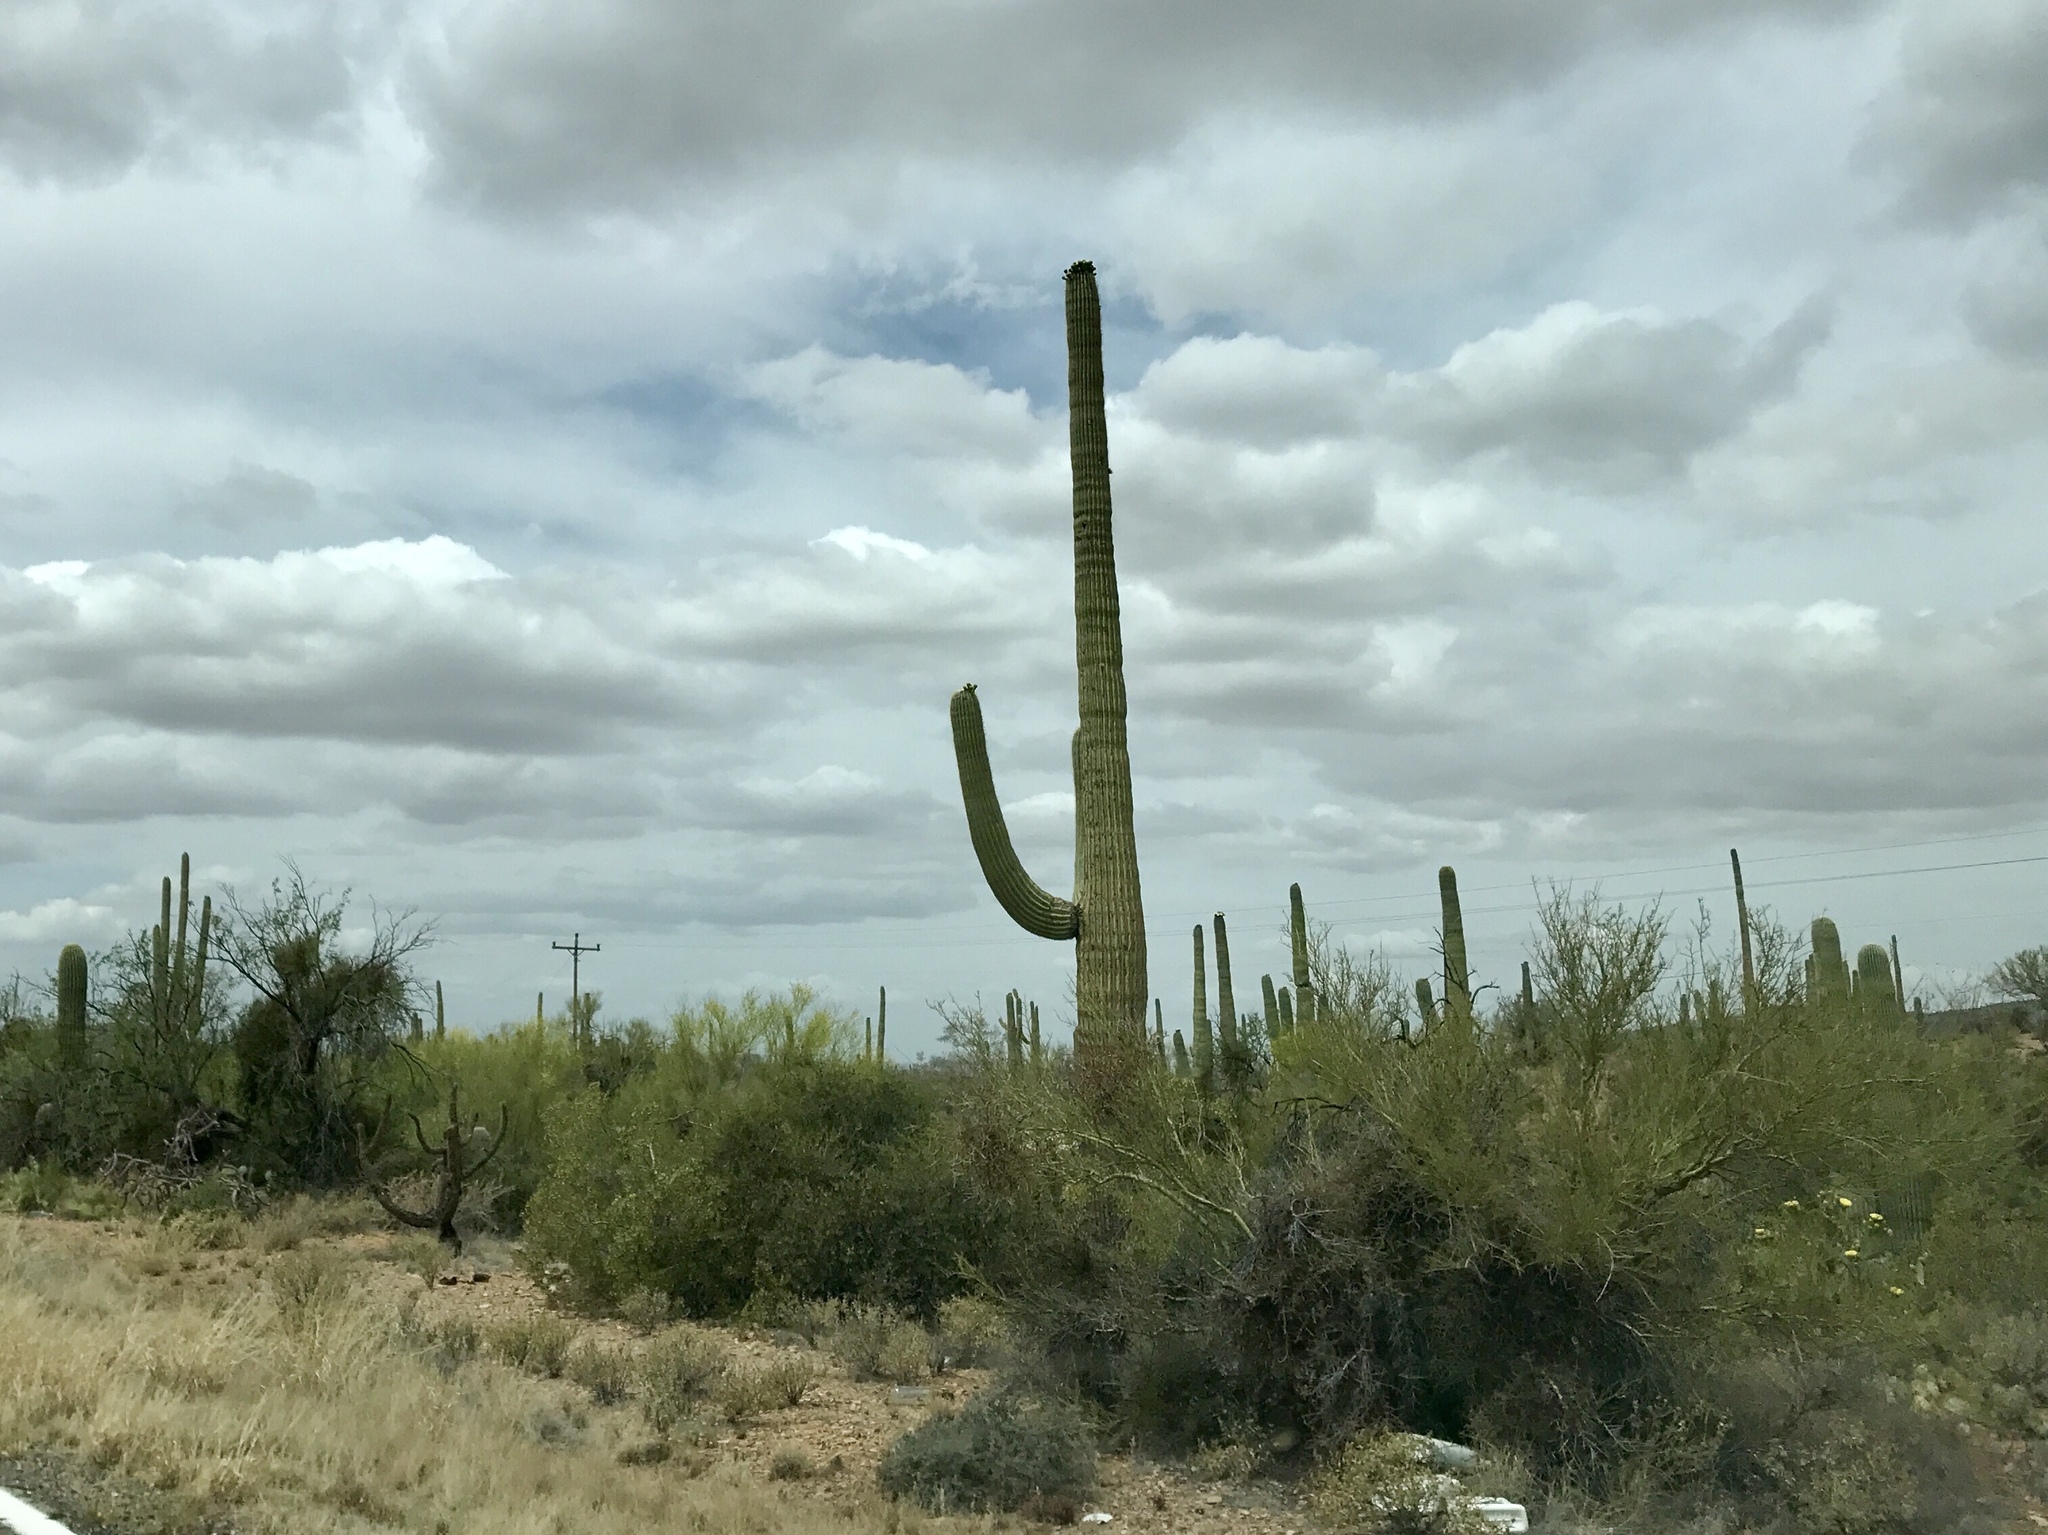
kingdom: Plantae
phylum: Tracheophyta
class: Magnoliopsida
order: Caryophyllales
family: Cactaceae
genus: Carnegiea
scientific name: Carnegiea gigantea
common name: Saguaro
